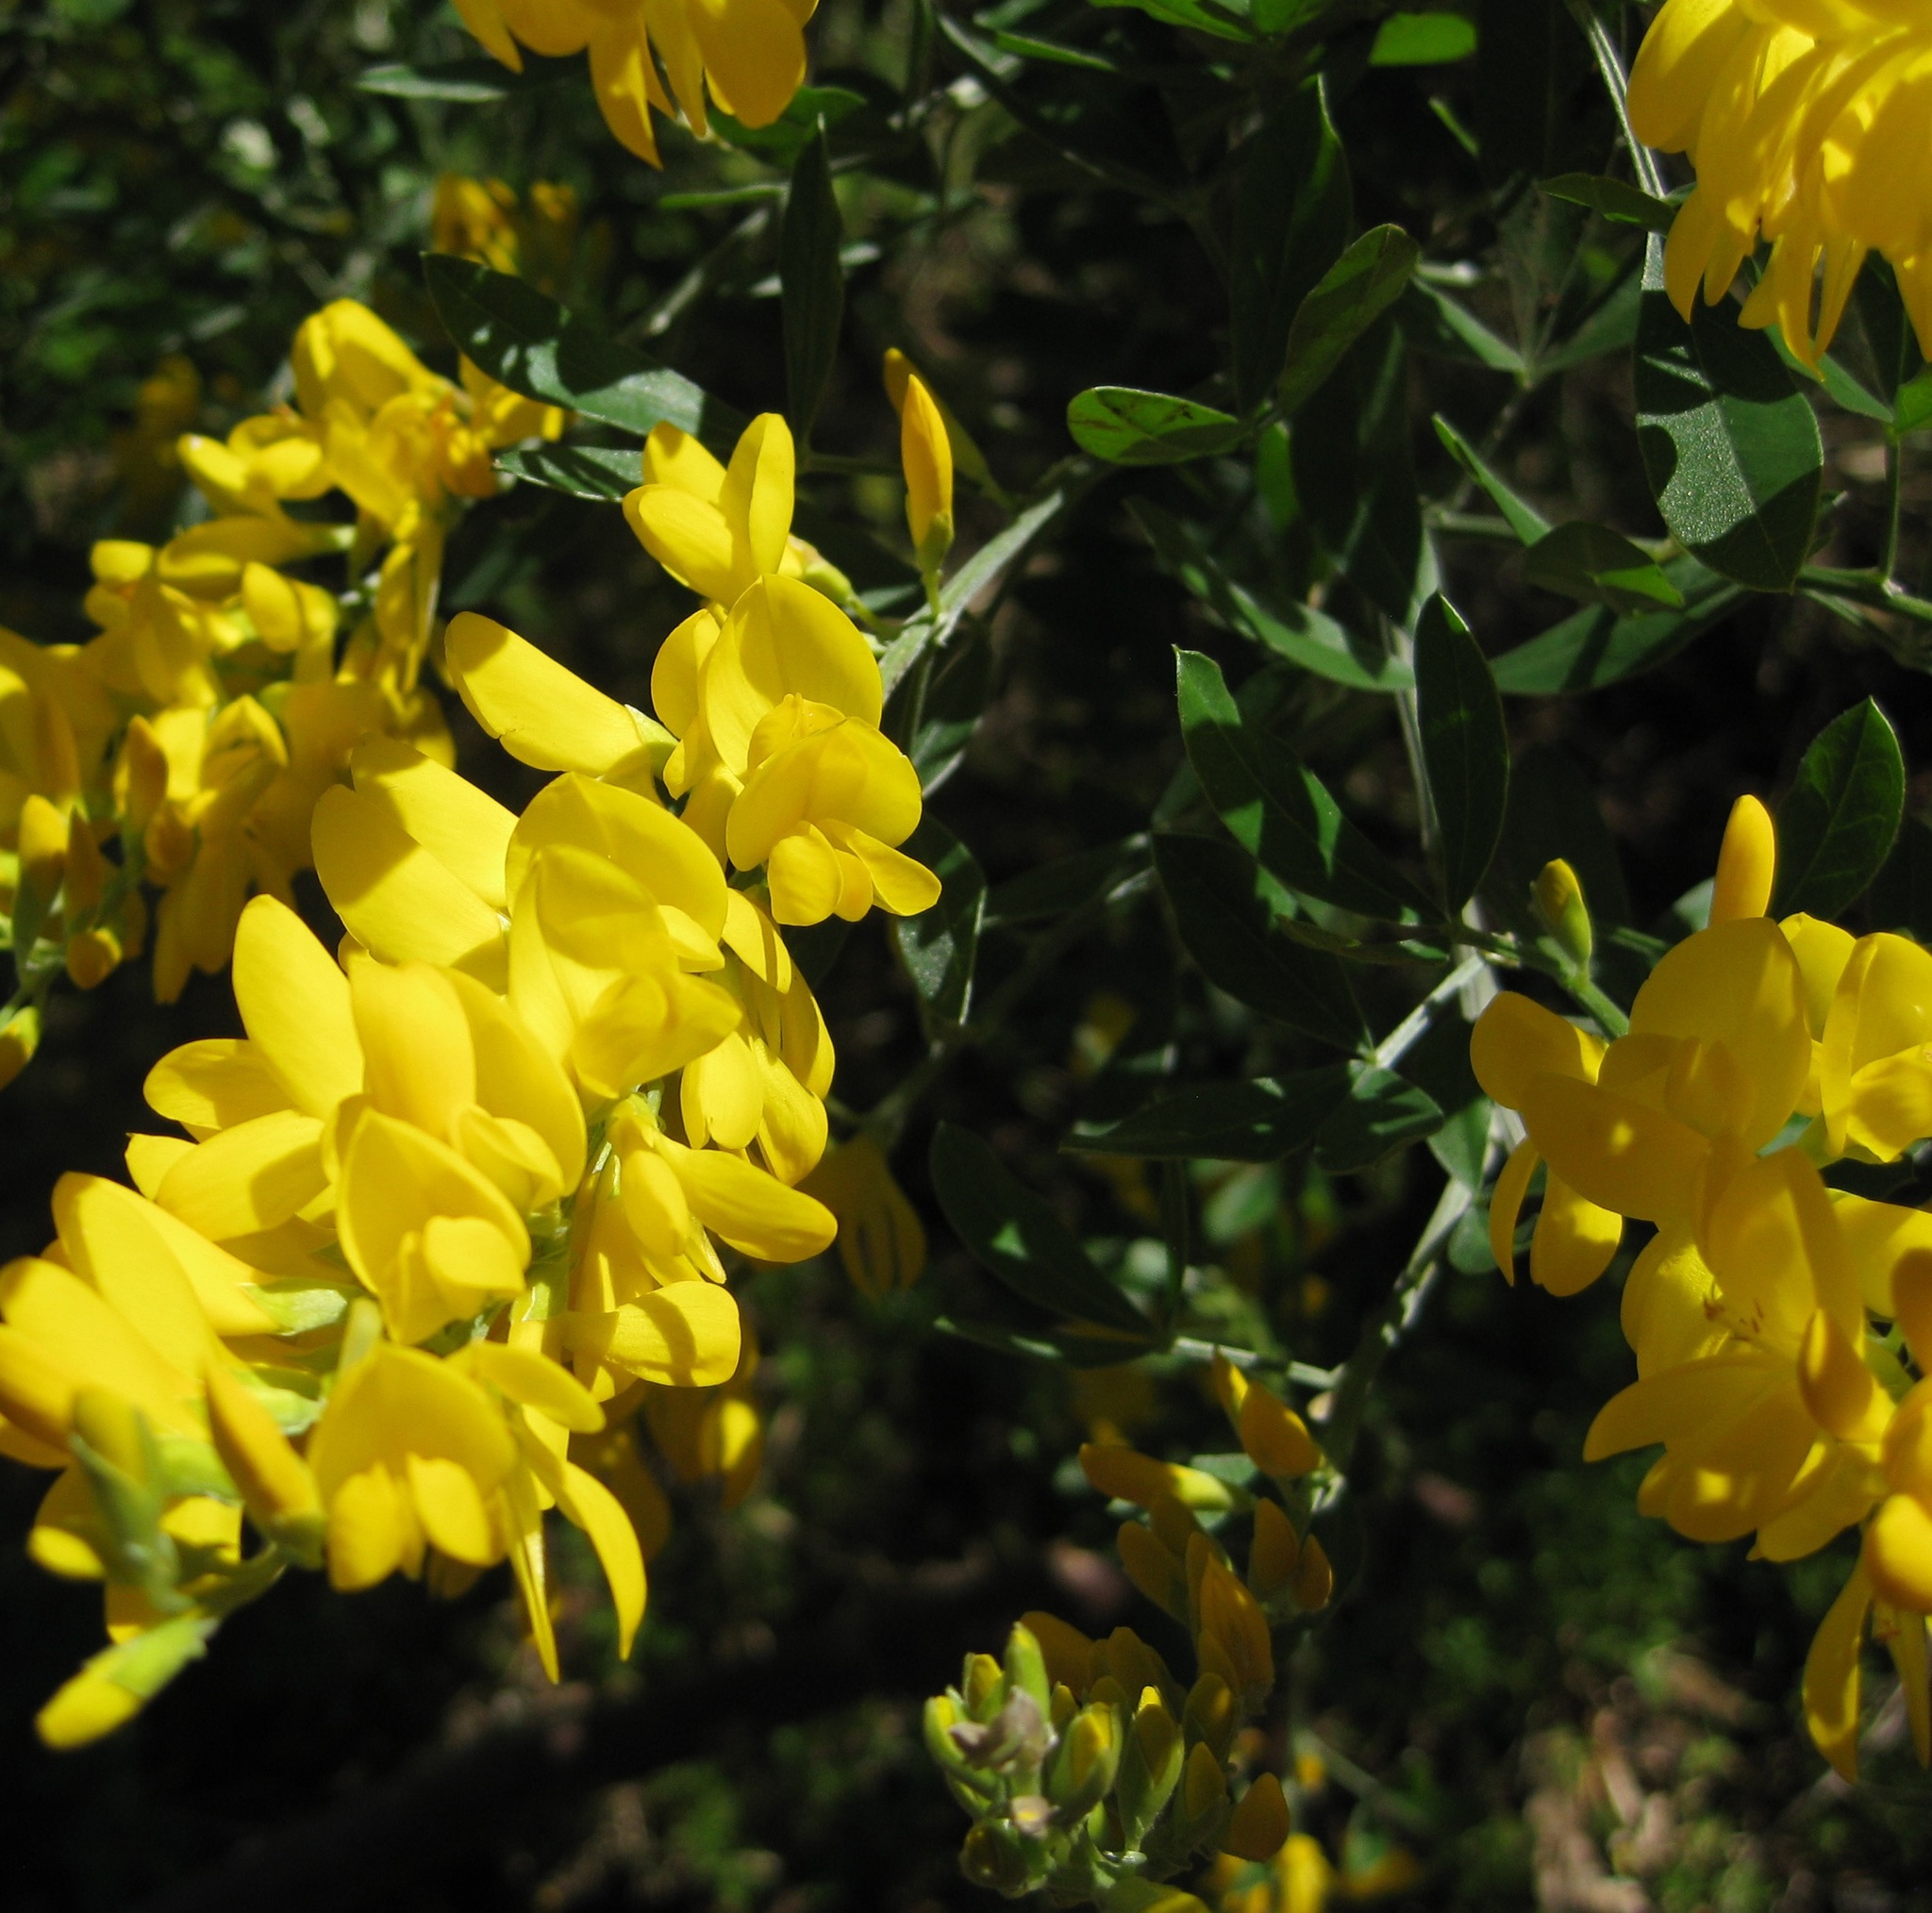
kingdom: Plantae
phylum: Tracheophyta
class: Magnoliopsida
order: Fabales
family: Fabaceae
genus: Genista
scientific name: Genista stenopetala
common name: Leafy broom
